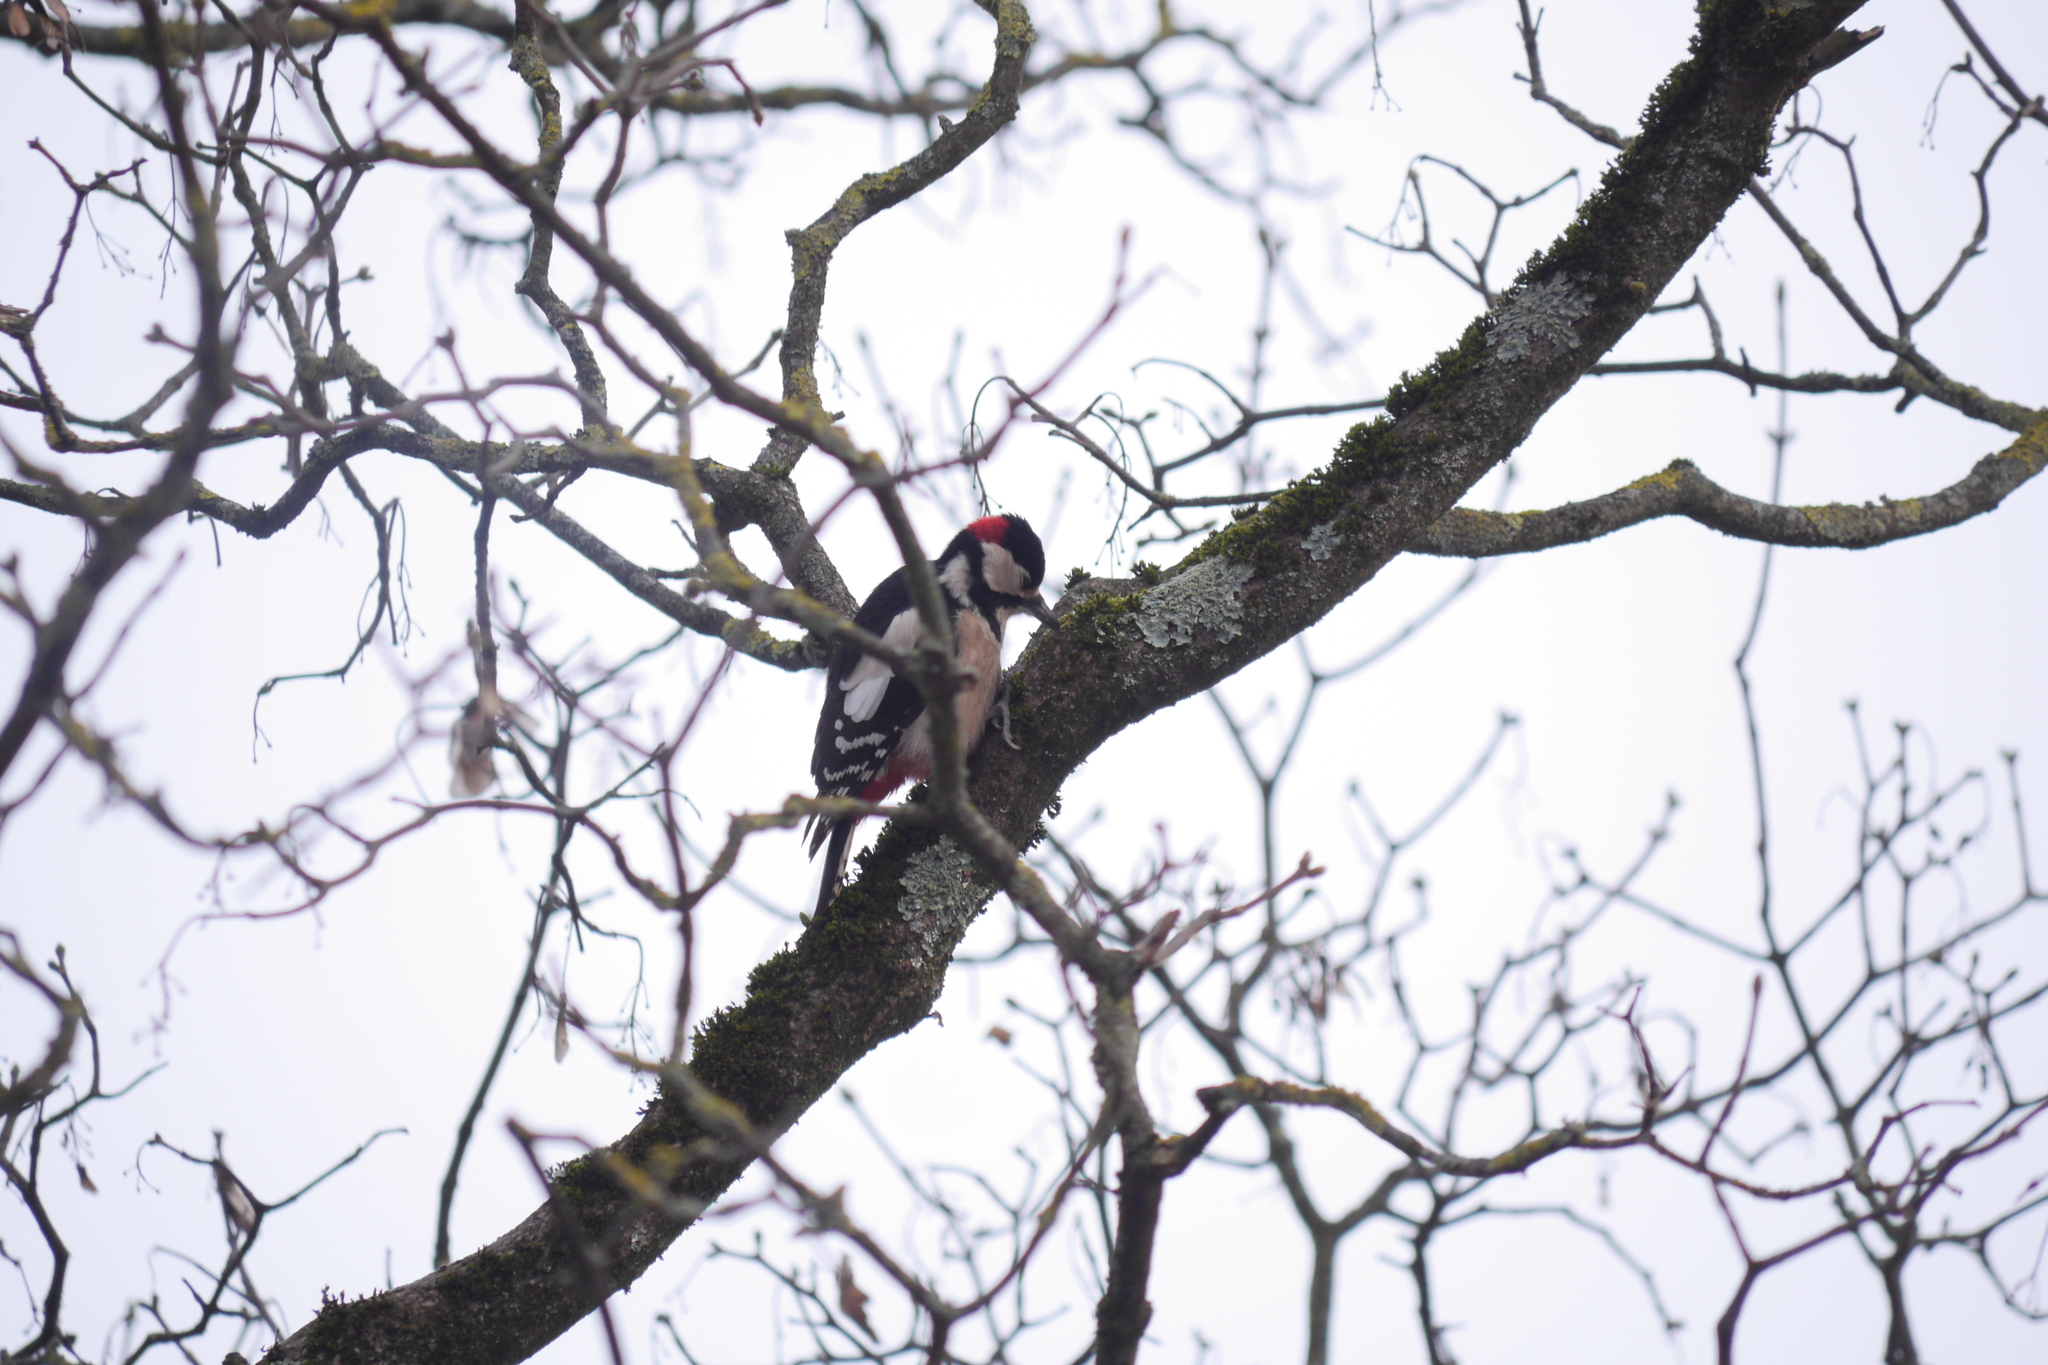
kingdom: Animalia
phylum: Chordata
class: Aves
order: Piciformes
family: Picidae
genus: Dendrocopos
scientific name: Dendrocopos major
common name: Great spotted woodpecker
